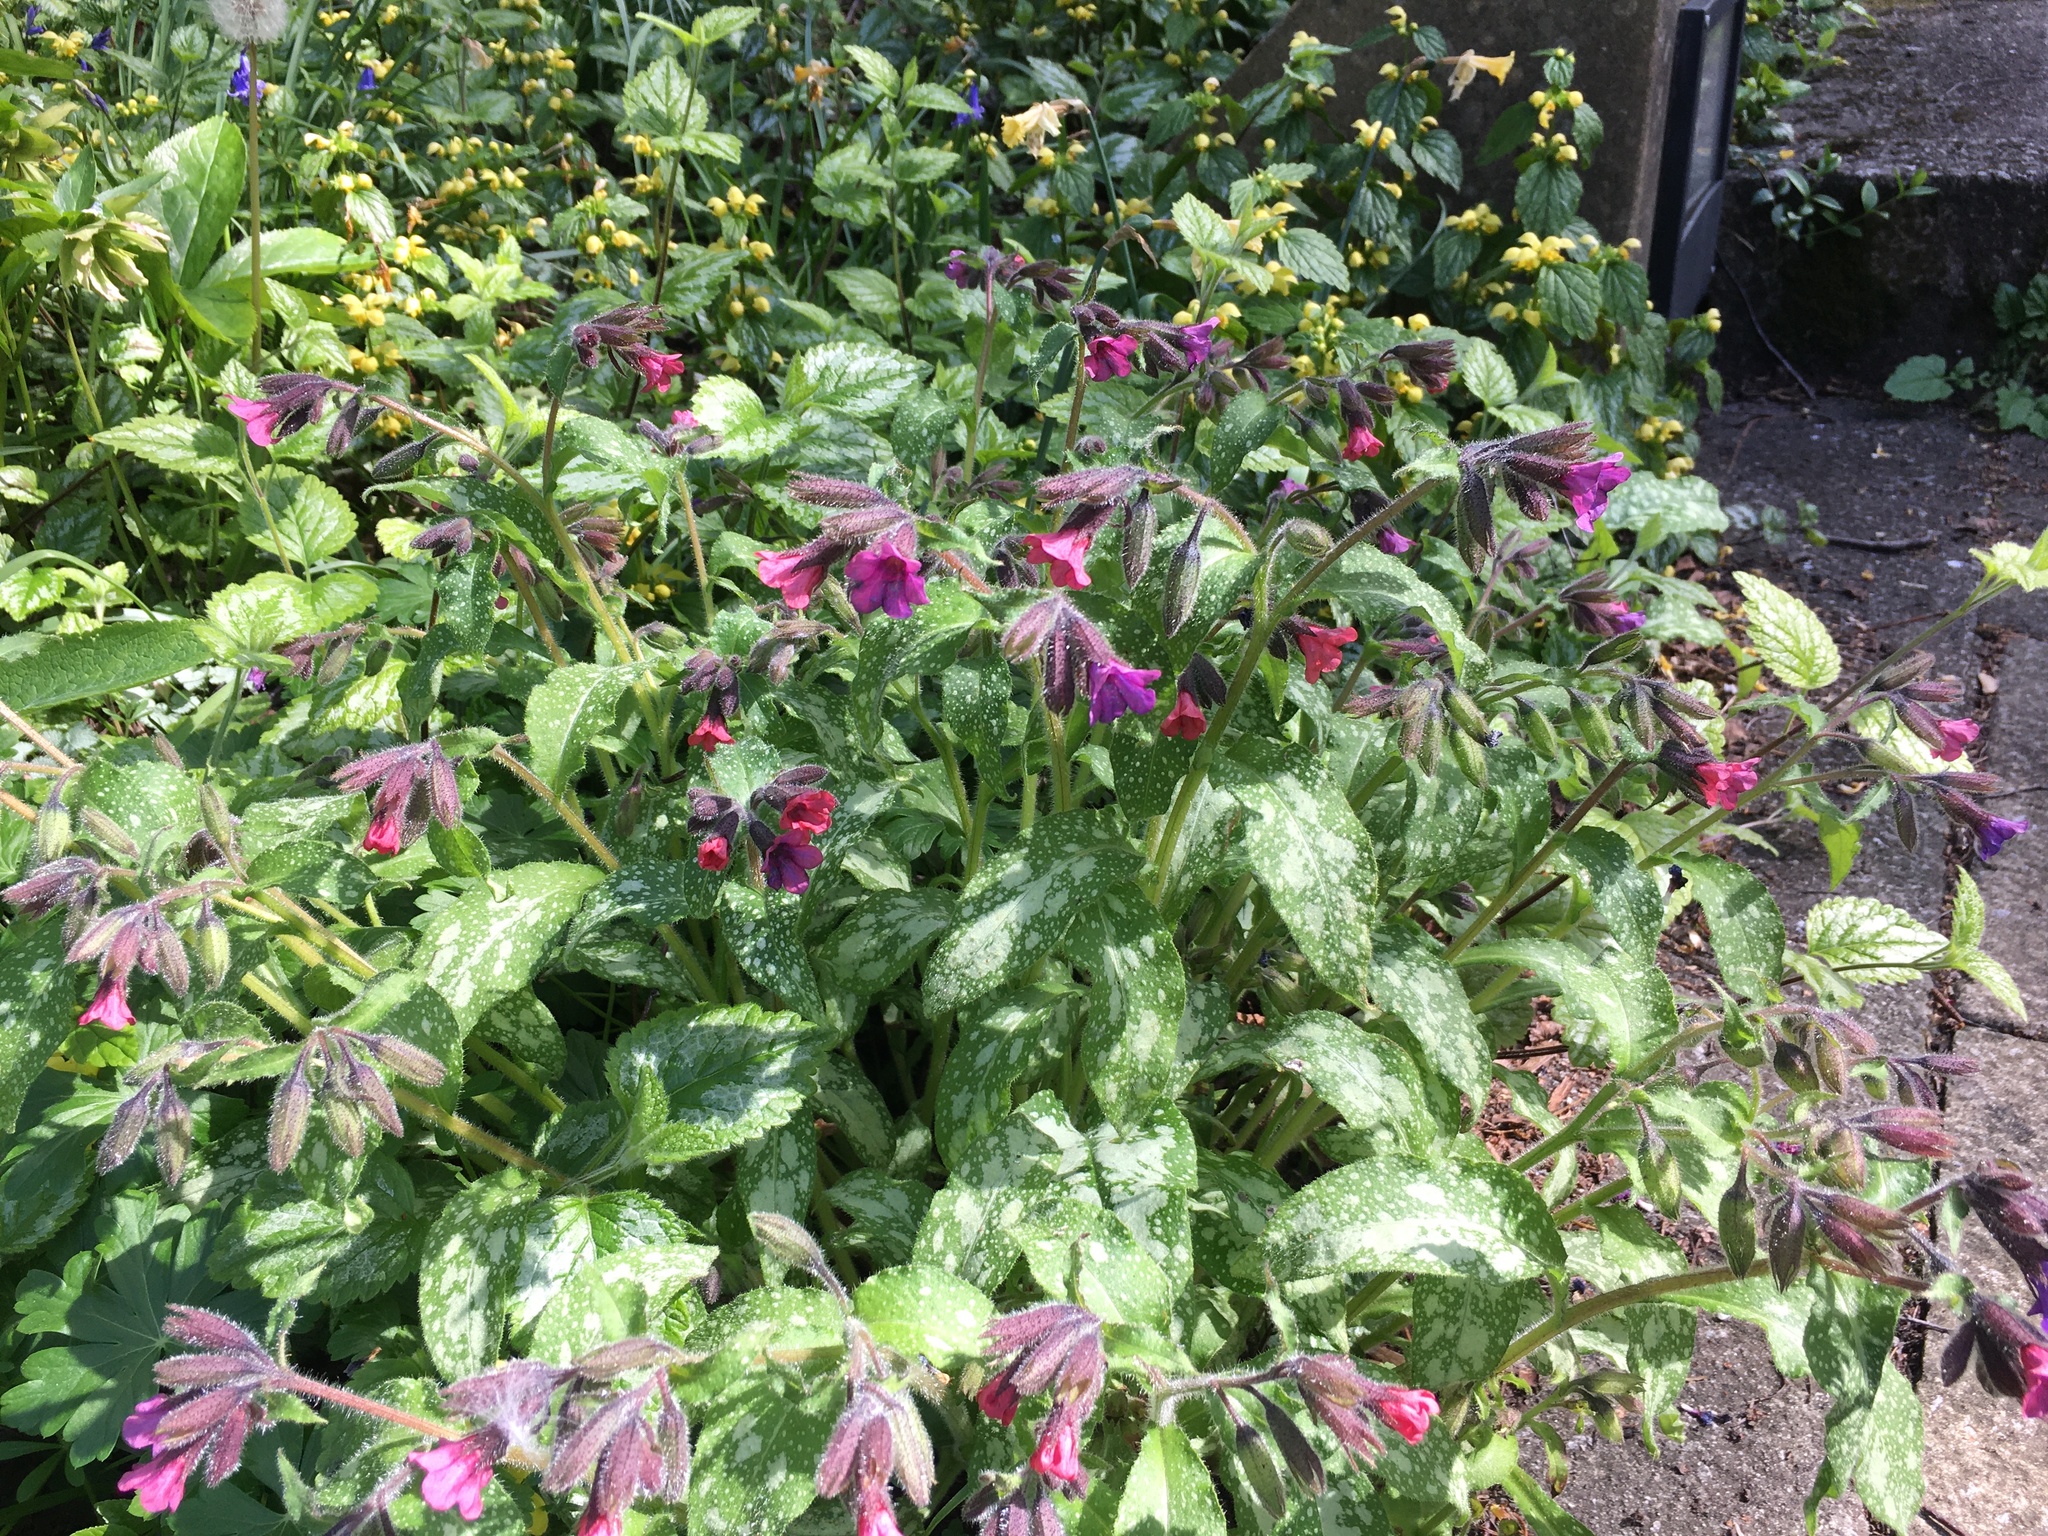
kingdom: Plantae
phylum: Tracheophyta
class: Magnoliopsida
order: Boraginales
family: Boraginaceae
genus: Pulmonaria
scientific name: Pulmonaria officinalis
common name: Lungwort
